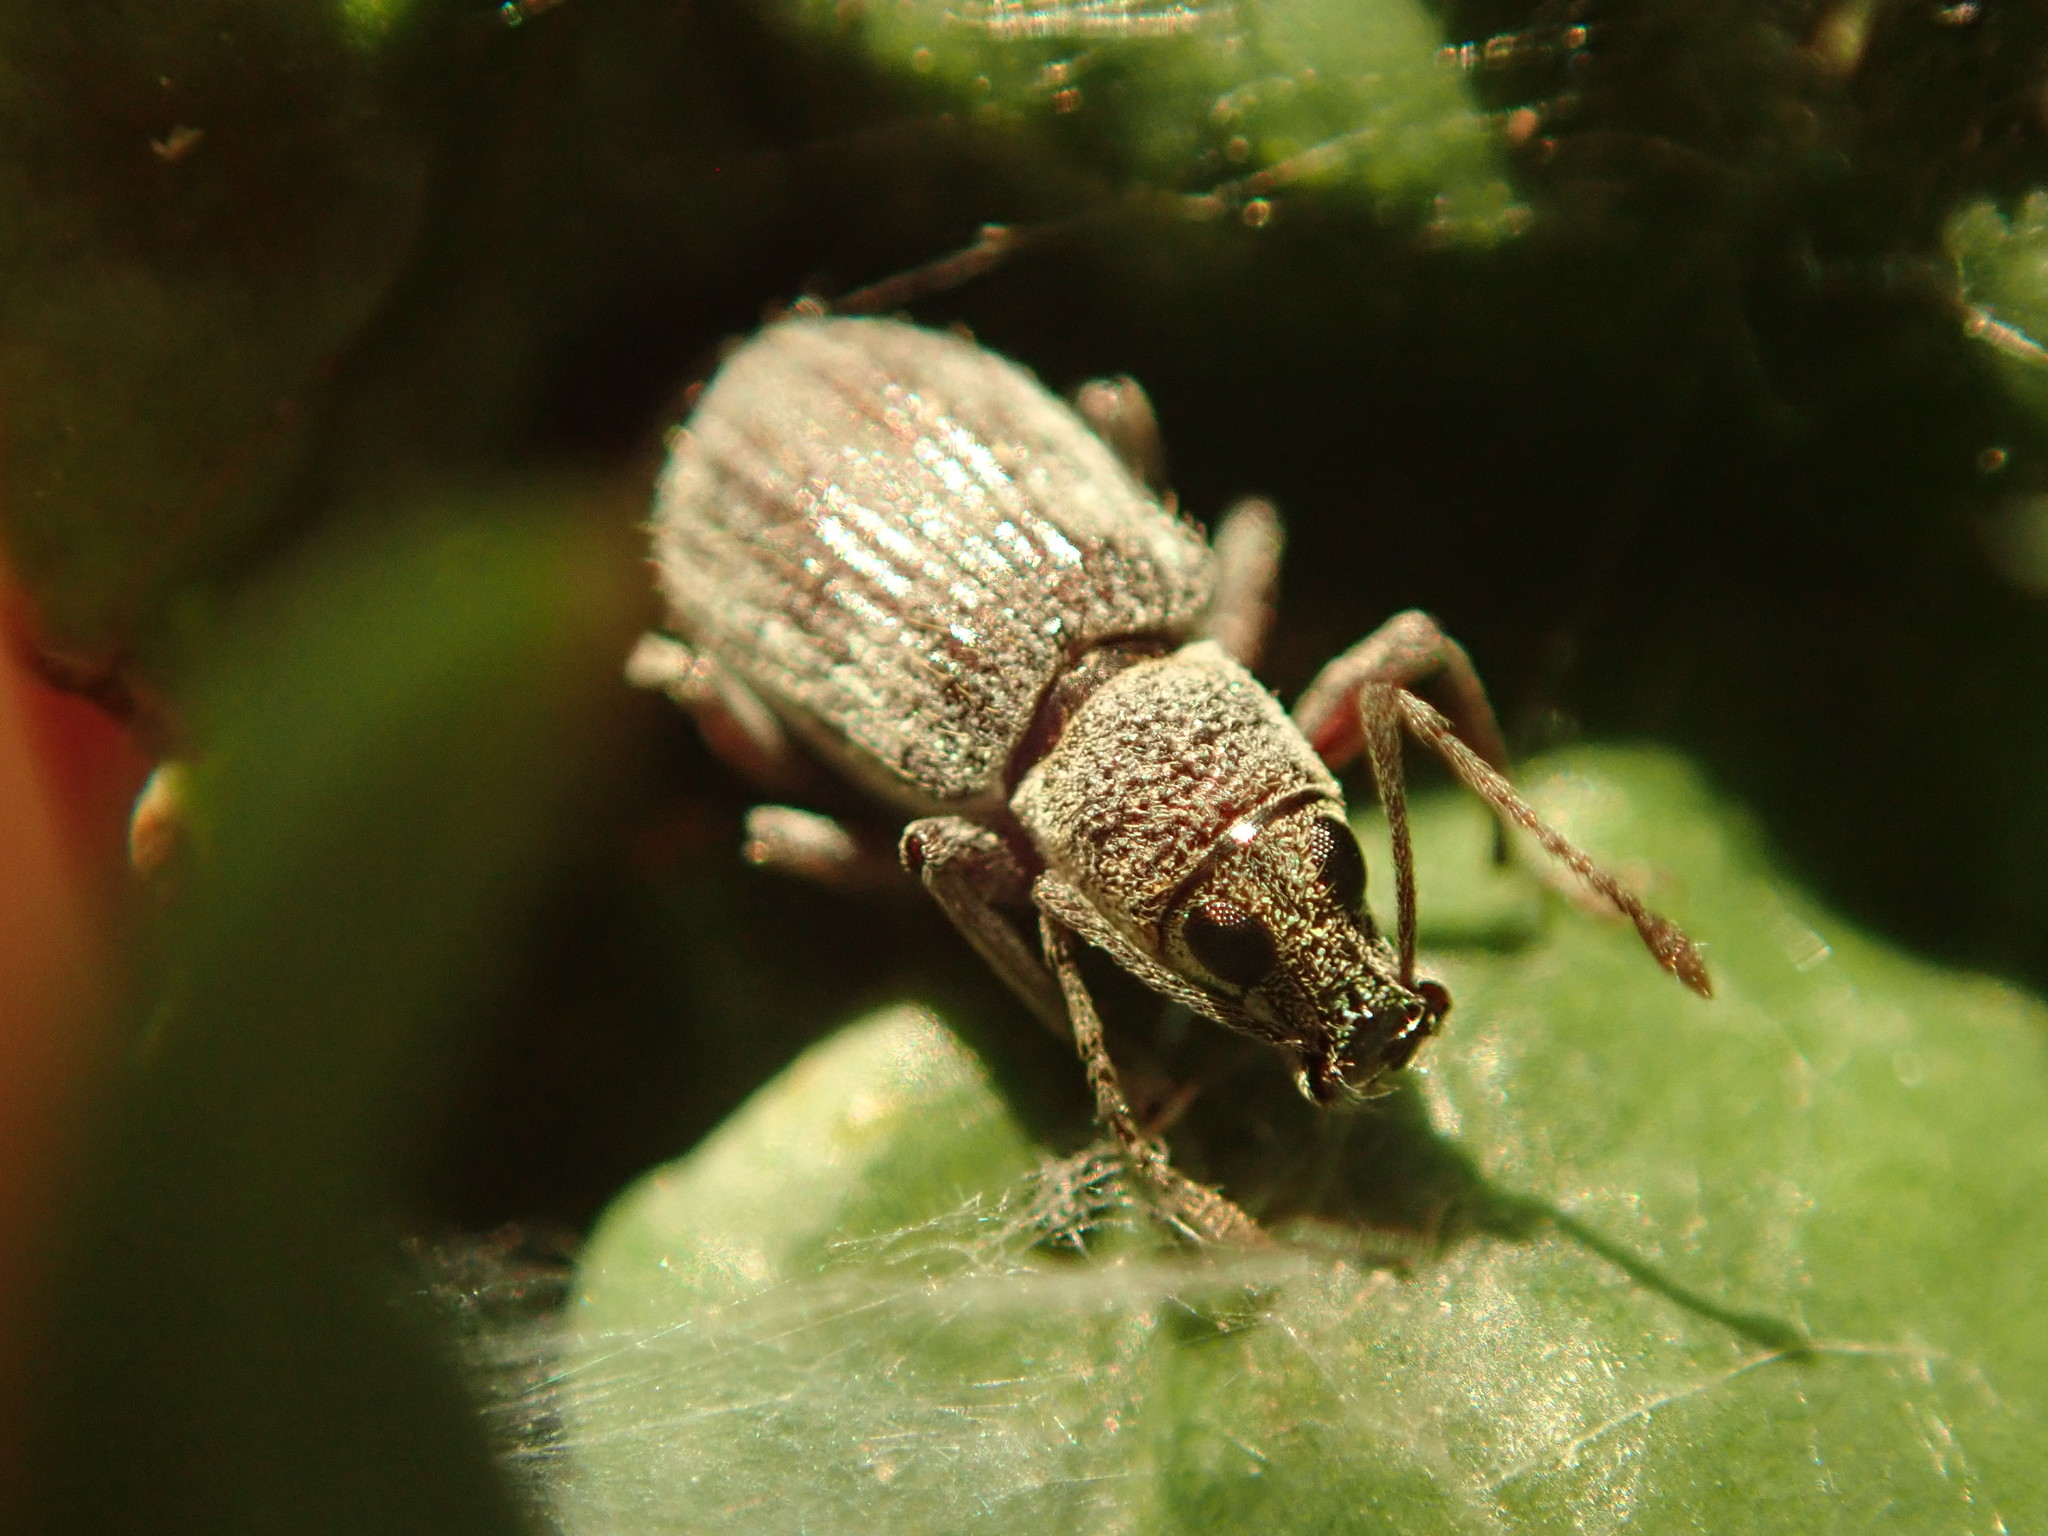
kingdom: Animalia
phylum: Arthropoda
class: Insecta
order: Coleoptera
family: Curculionidae
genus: Cyrtepistomus
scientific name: Cyrtepistomus castaneus
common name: Weevil
